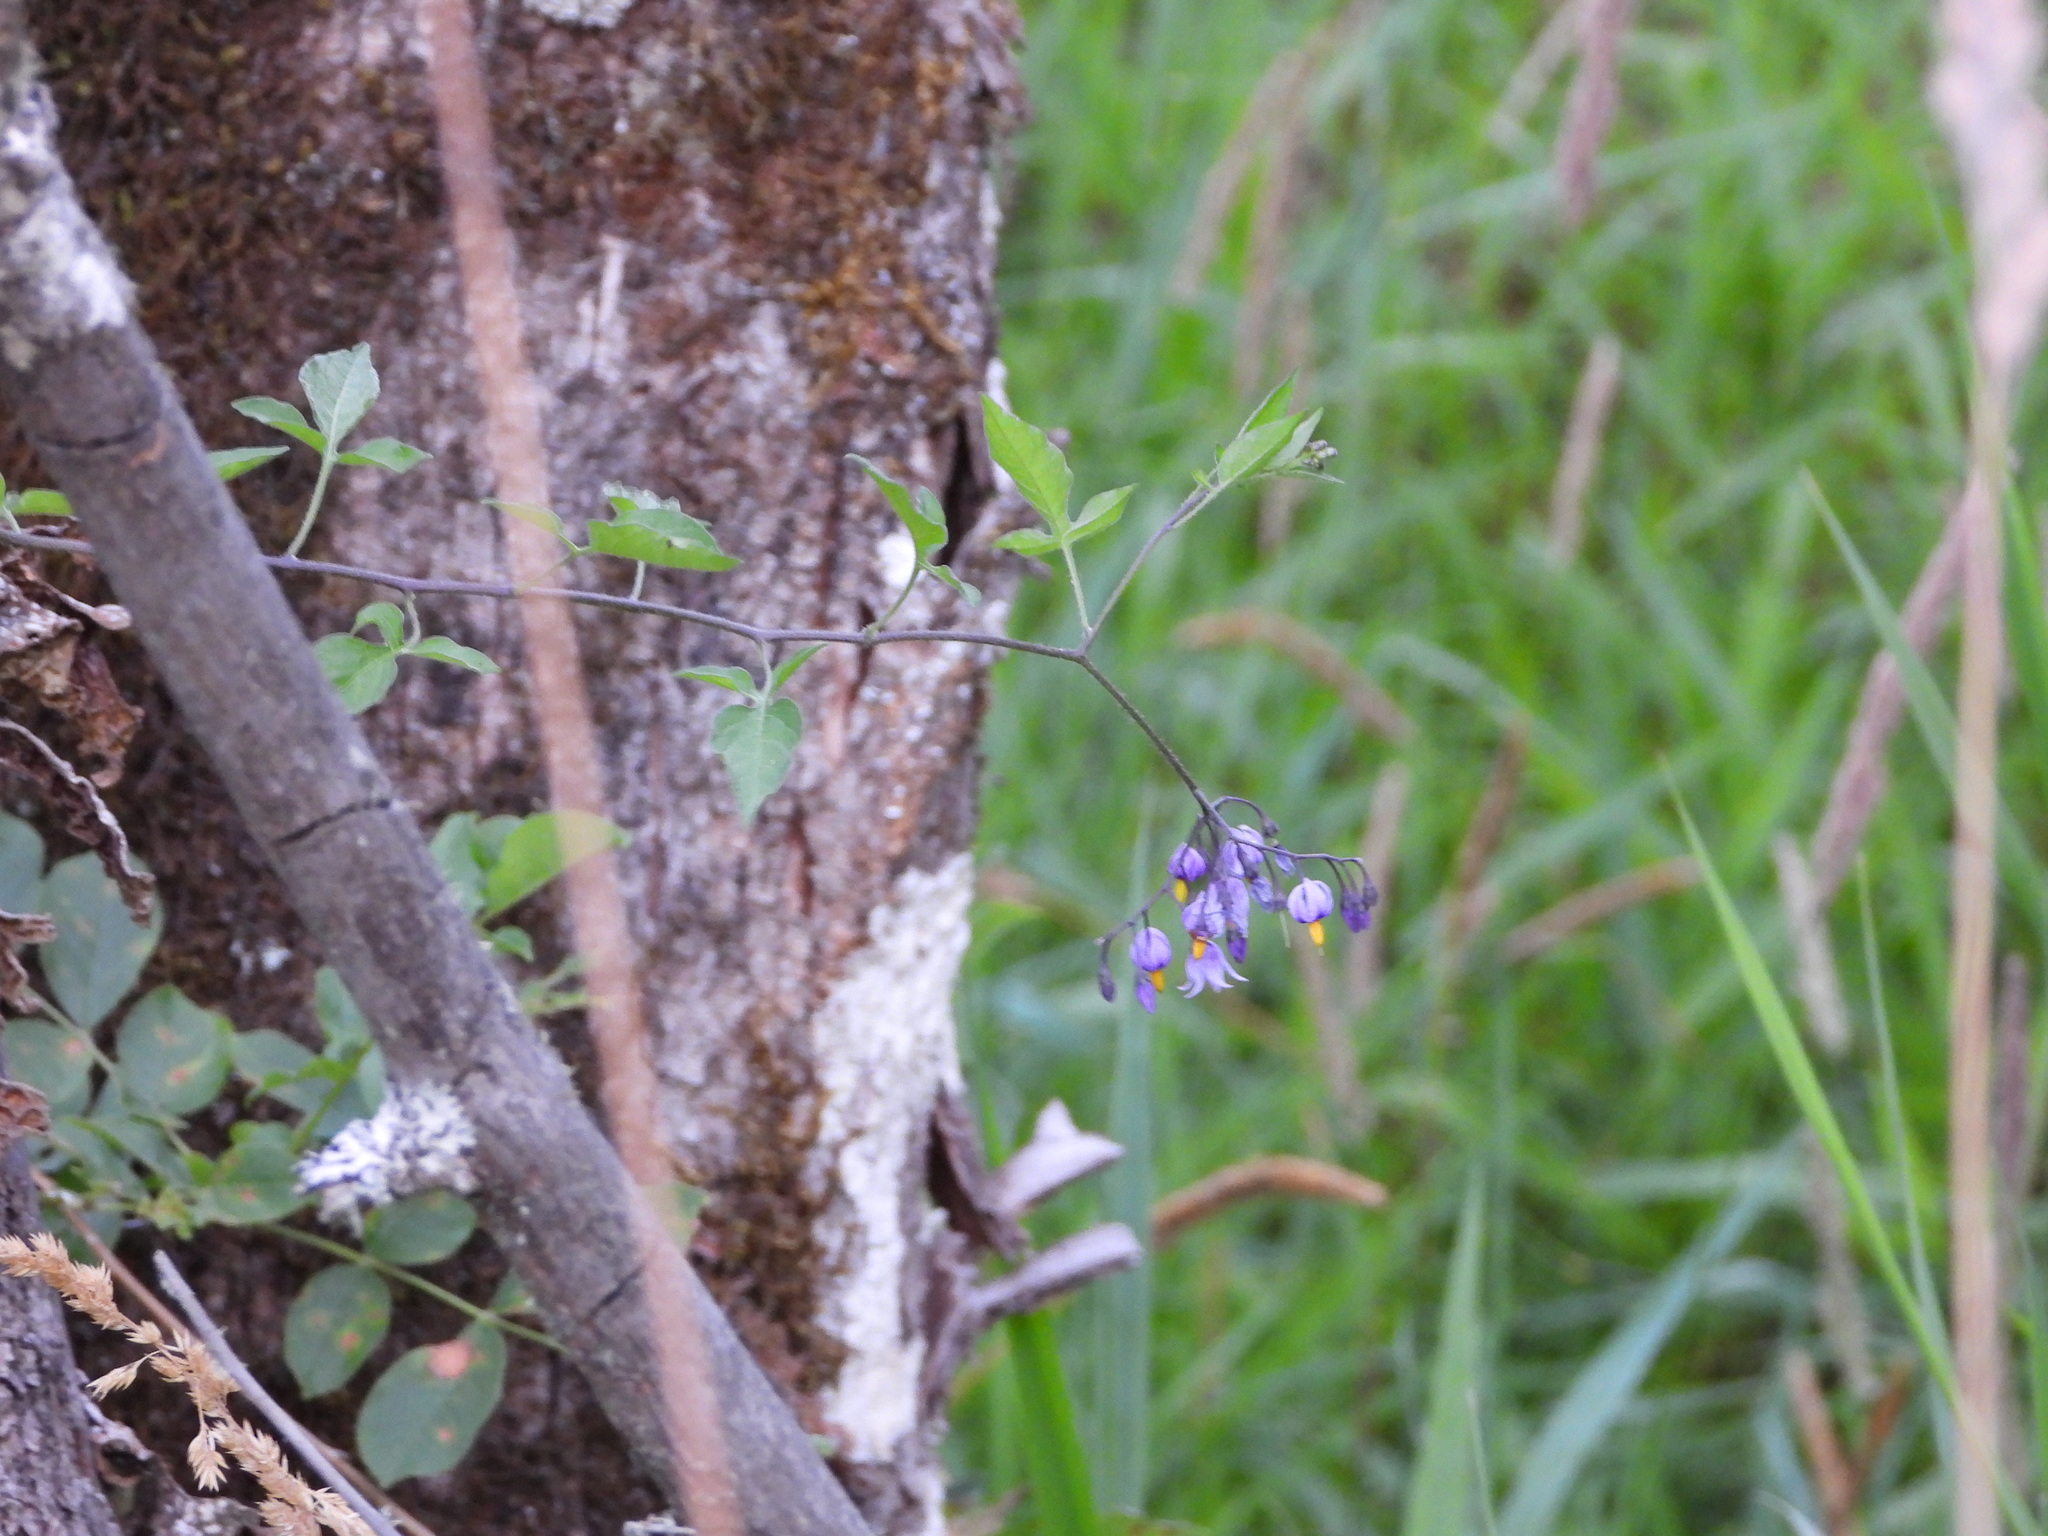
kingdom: Plantae
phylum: Tracheophyta
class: Magnoliopsida
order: Solanales
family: Solanaceae
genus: Solanum
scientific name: Solanum dulcamara
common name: Climbing nightshade
